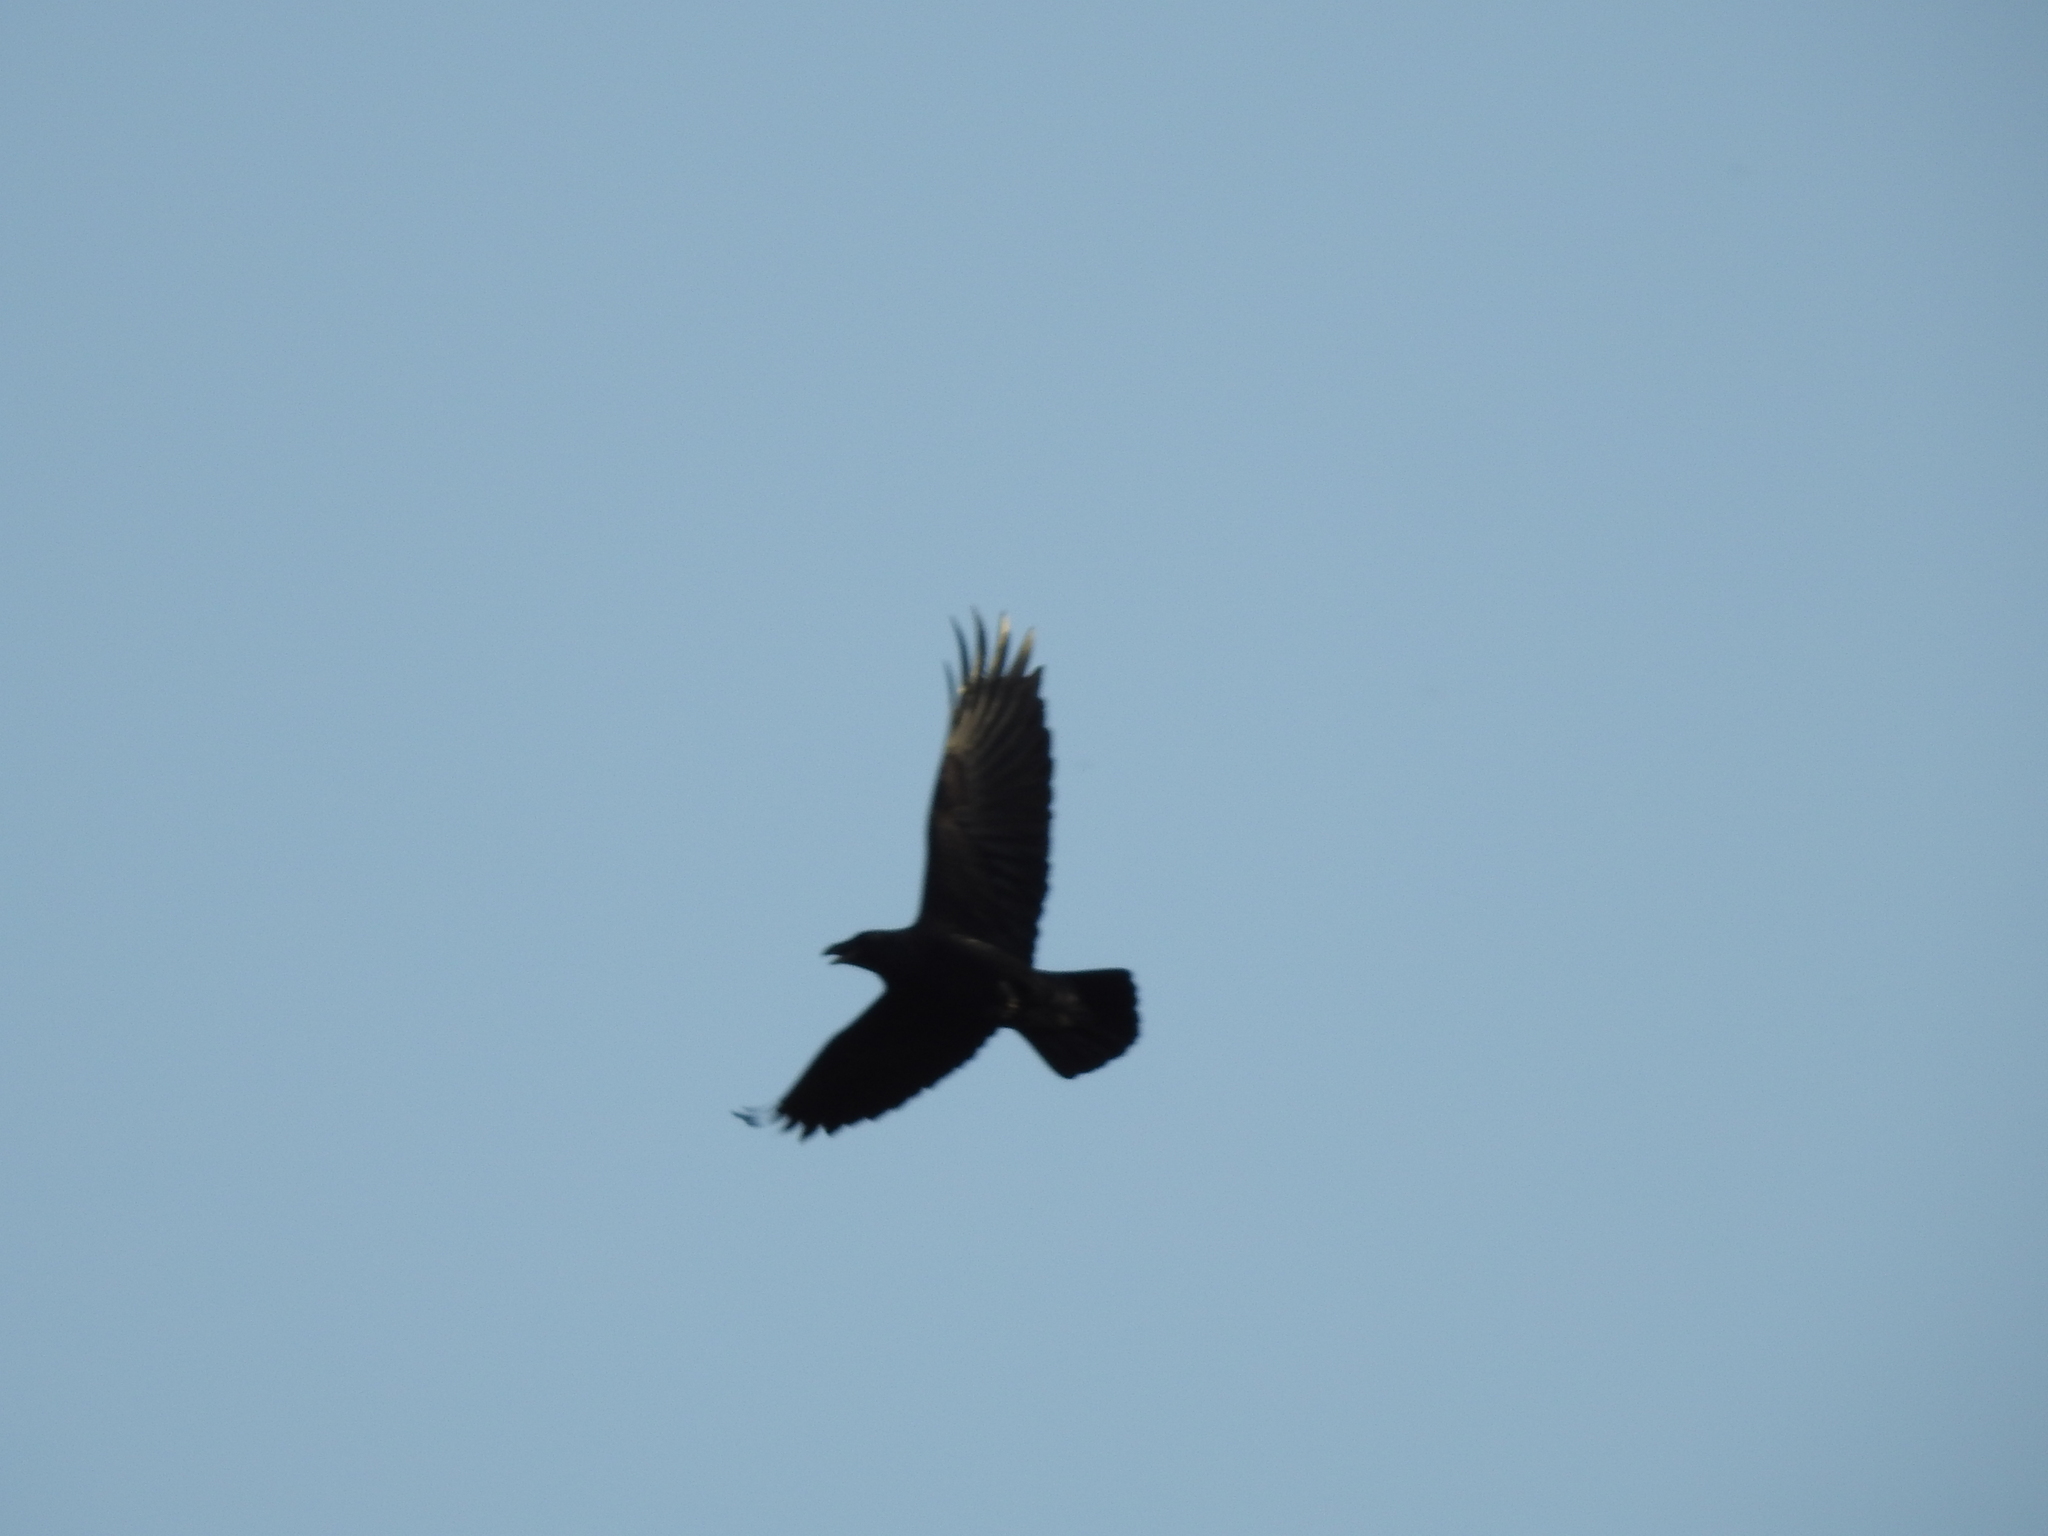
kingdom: Animalia
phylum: Chordata
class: Aves
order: Passeriformes
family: Corvidae
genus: Corvus
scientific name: Corvus corax
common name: Common raven
